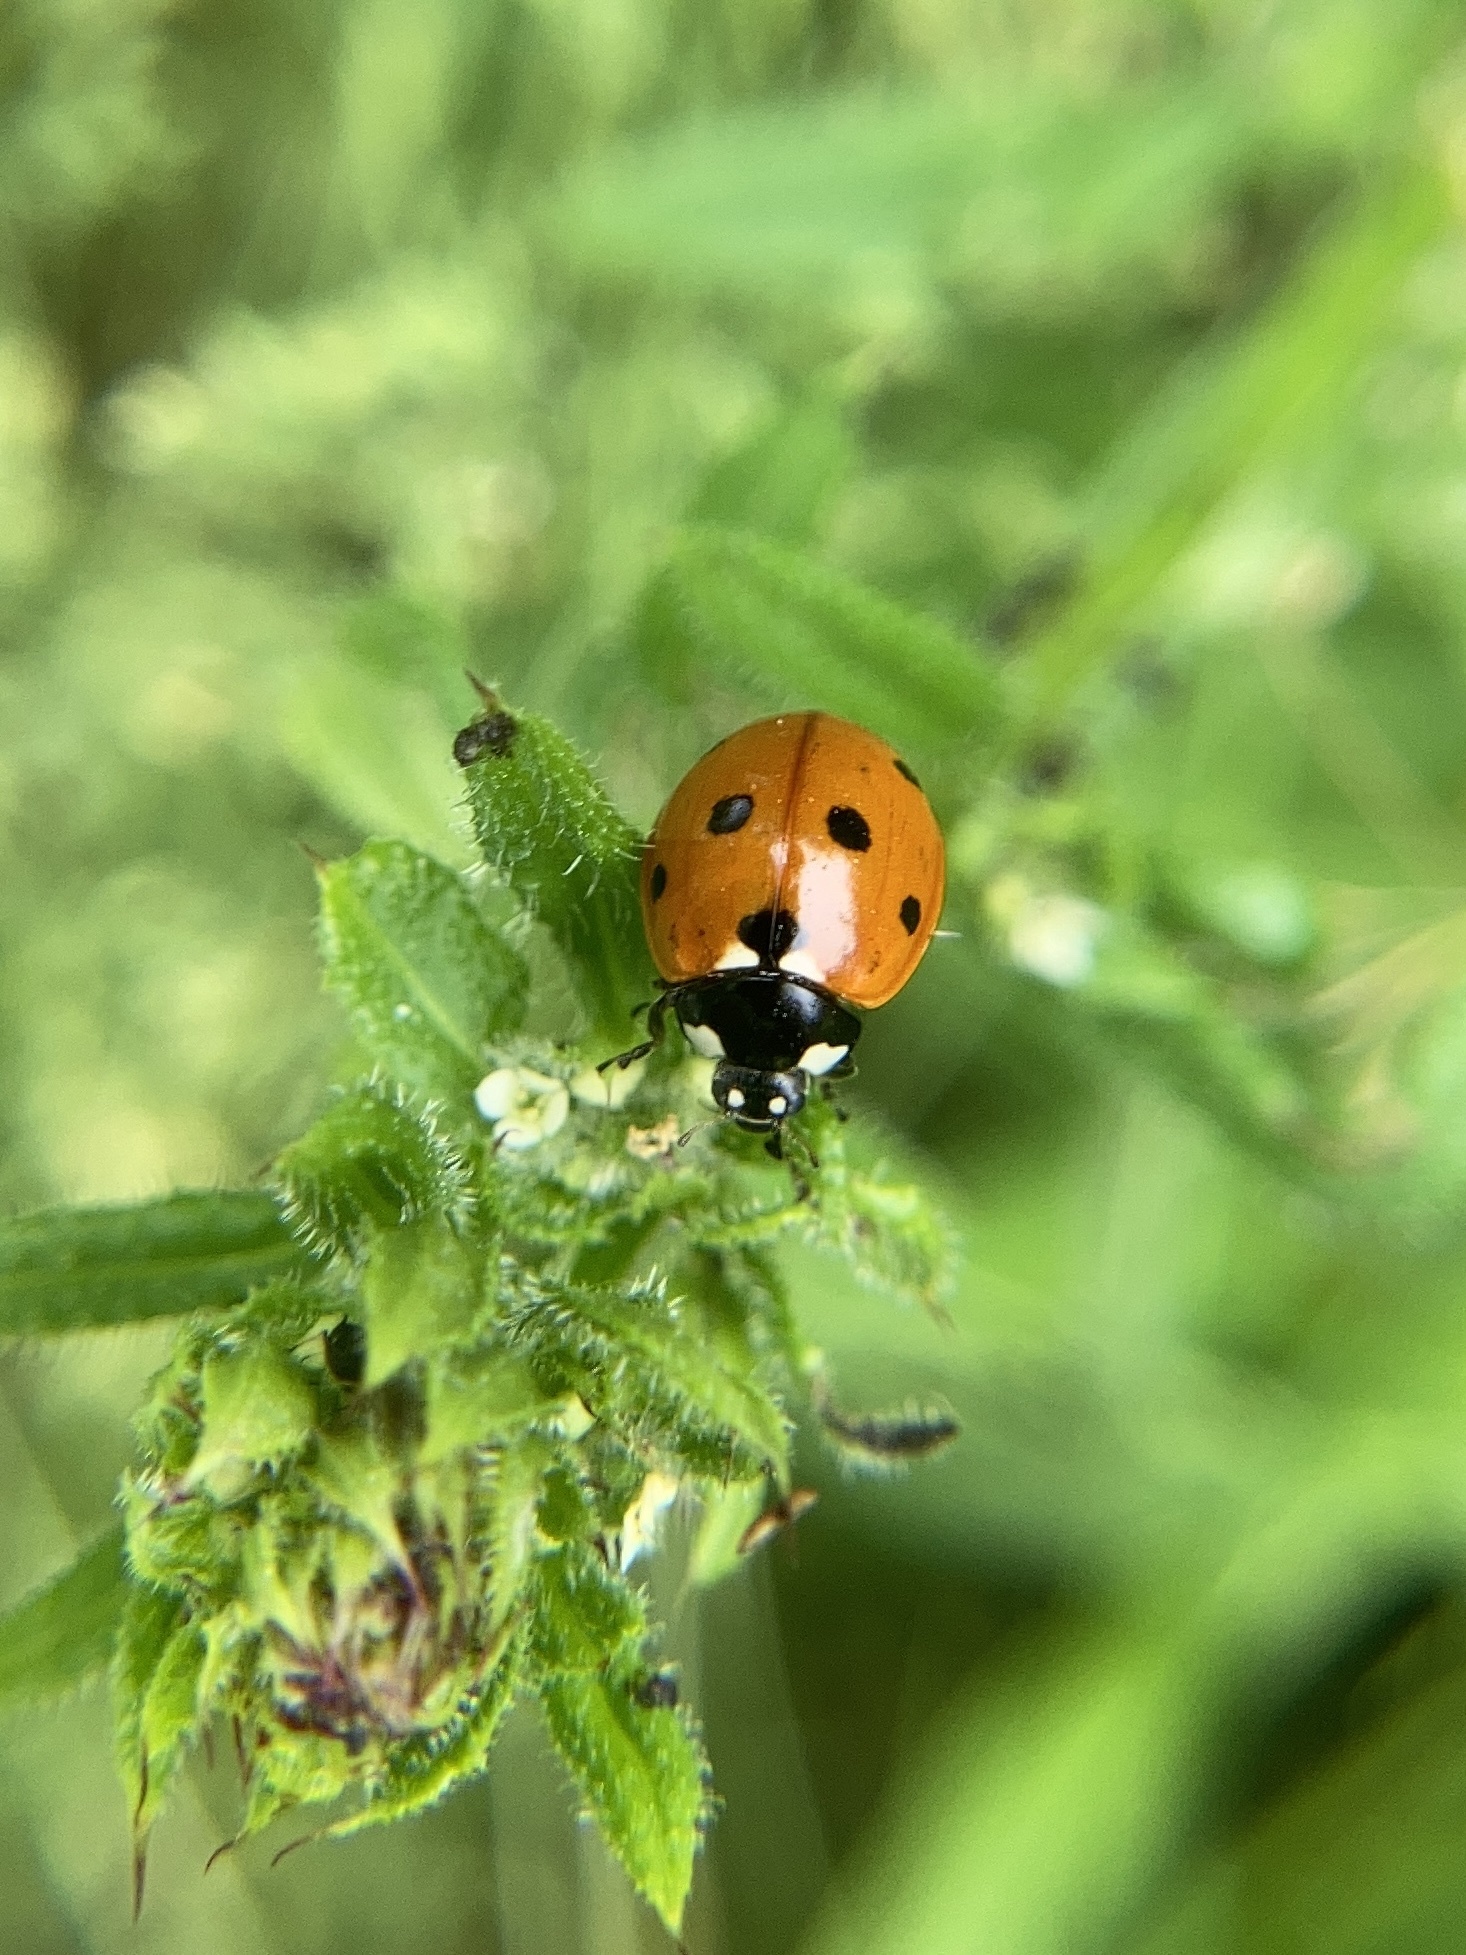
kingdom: Animalia
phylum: Arthropoda
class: Insecta
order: Coleoptera
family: Coccinellidae
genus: Coccinella
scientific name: Coccinella septempunctata
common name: Sevenspotted lady beetle
